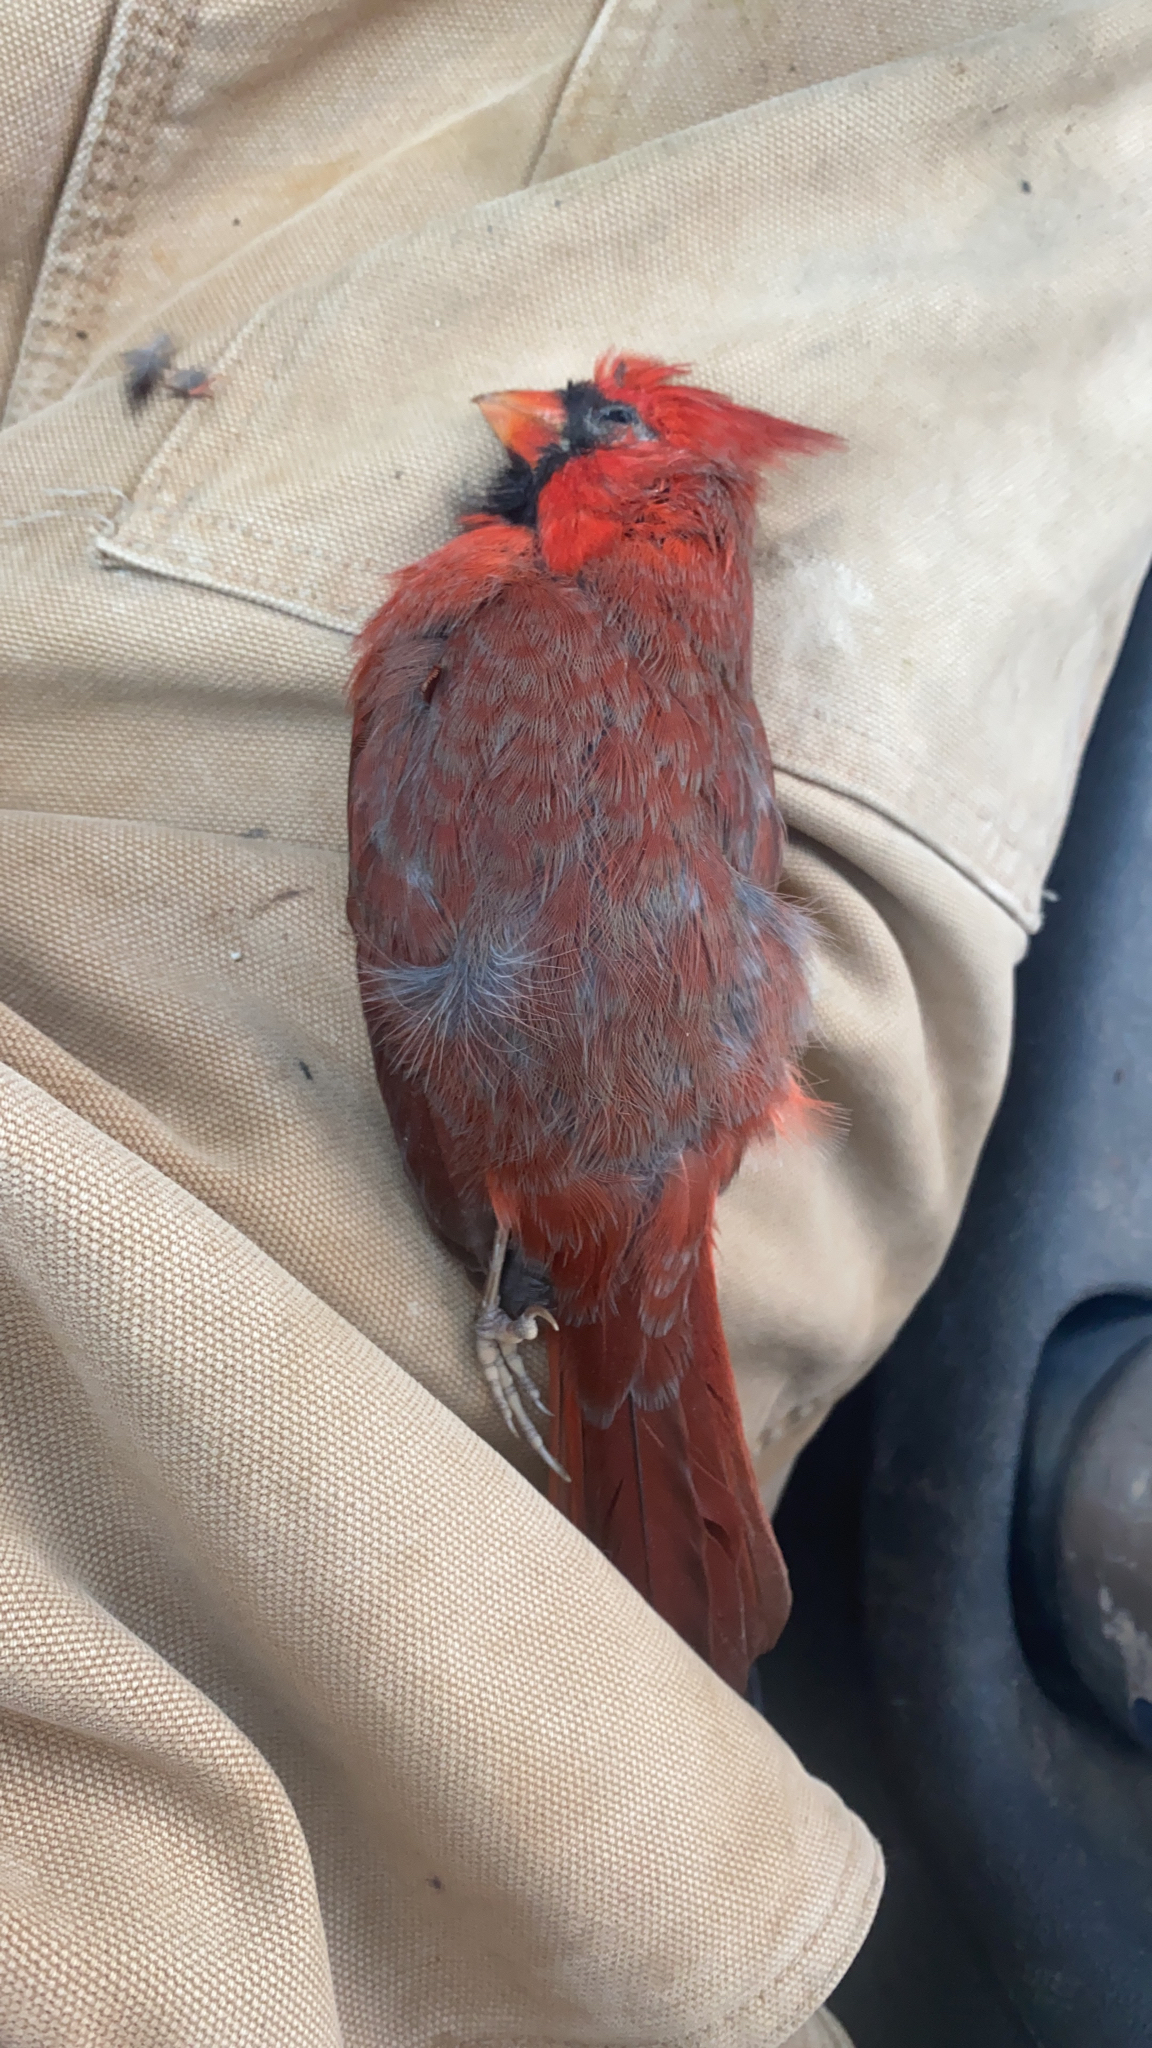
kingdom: Animalia
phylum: Chordata
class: Aves
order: Passeriformes
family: Cardinalidae
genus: Cardinalis
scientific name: Cardinalis cardinalis
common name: Northern cardinal
